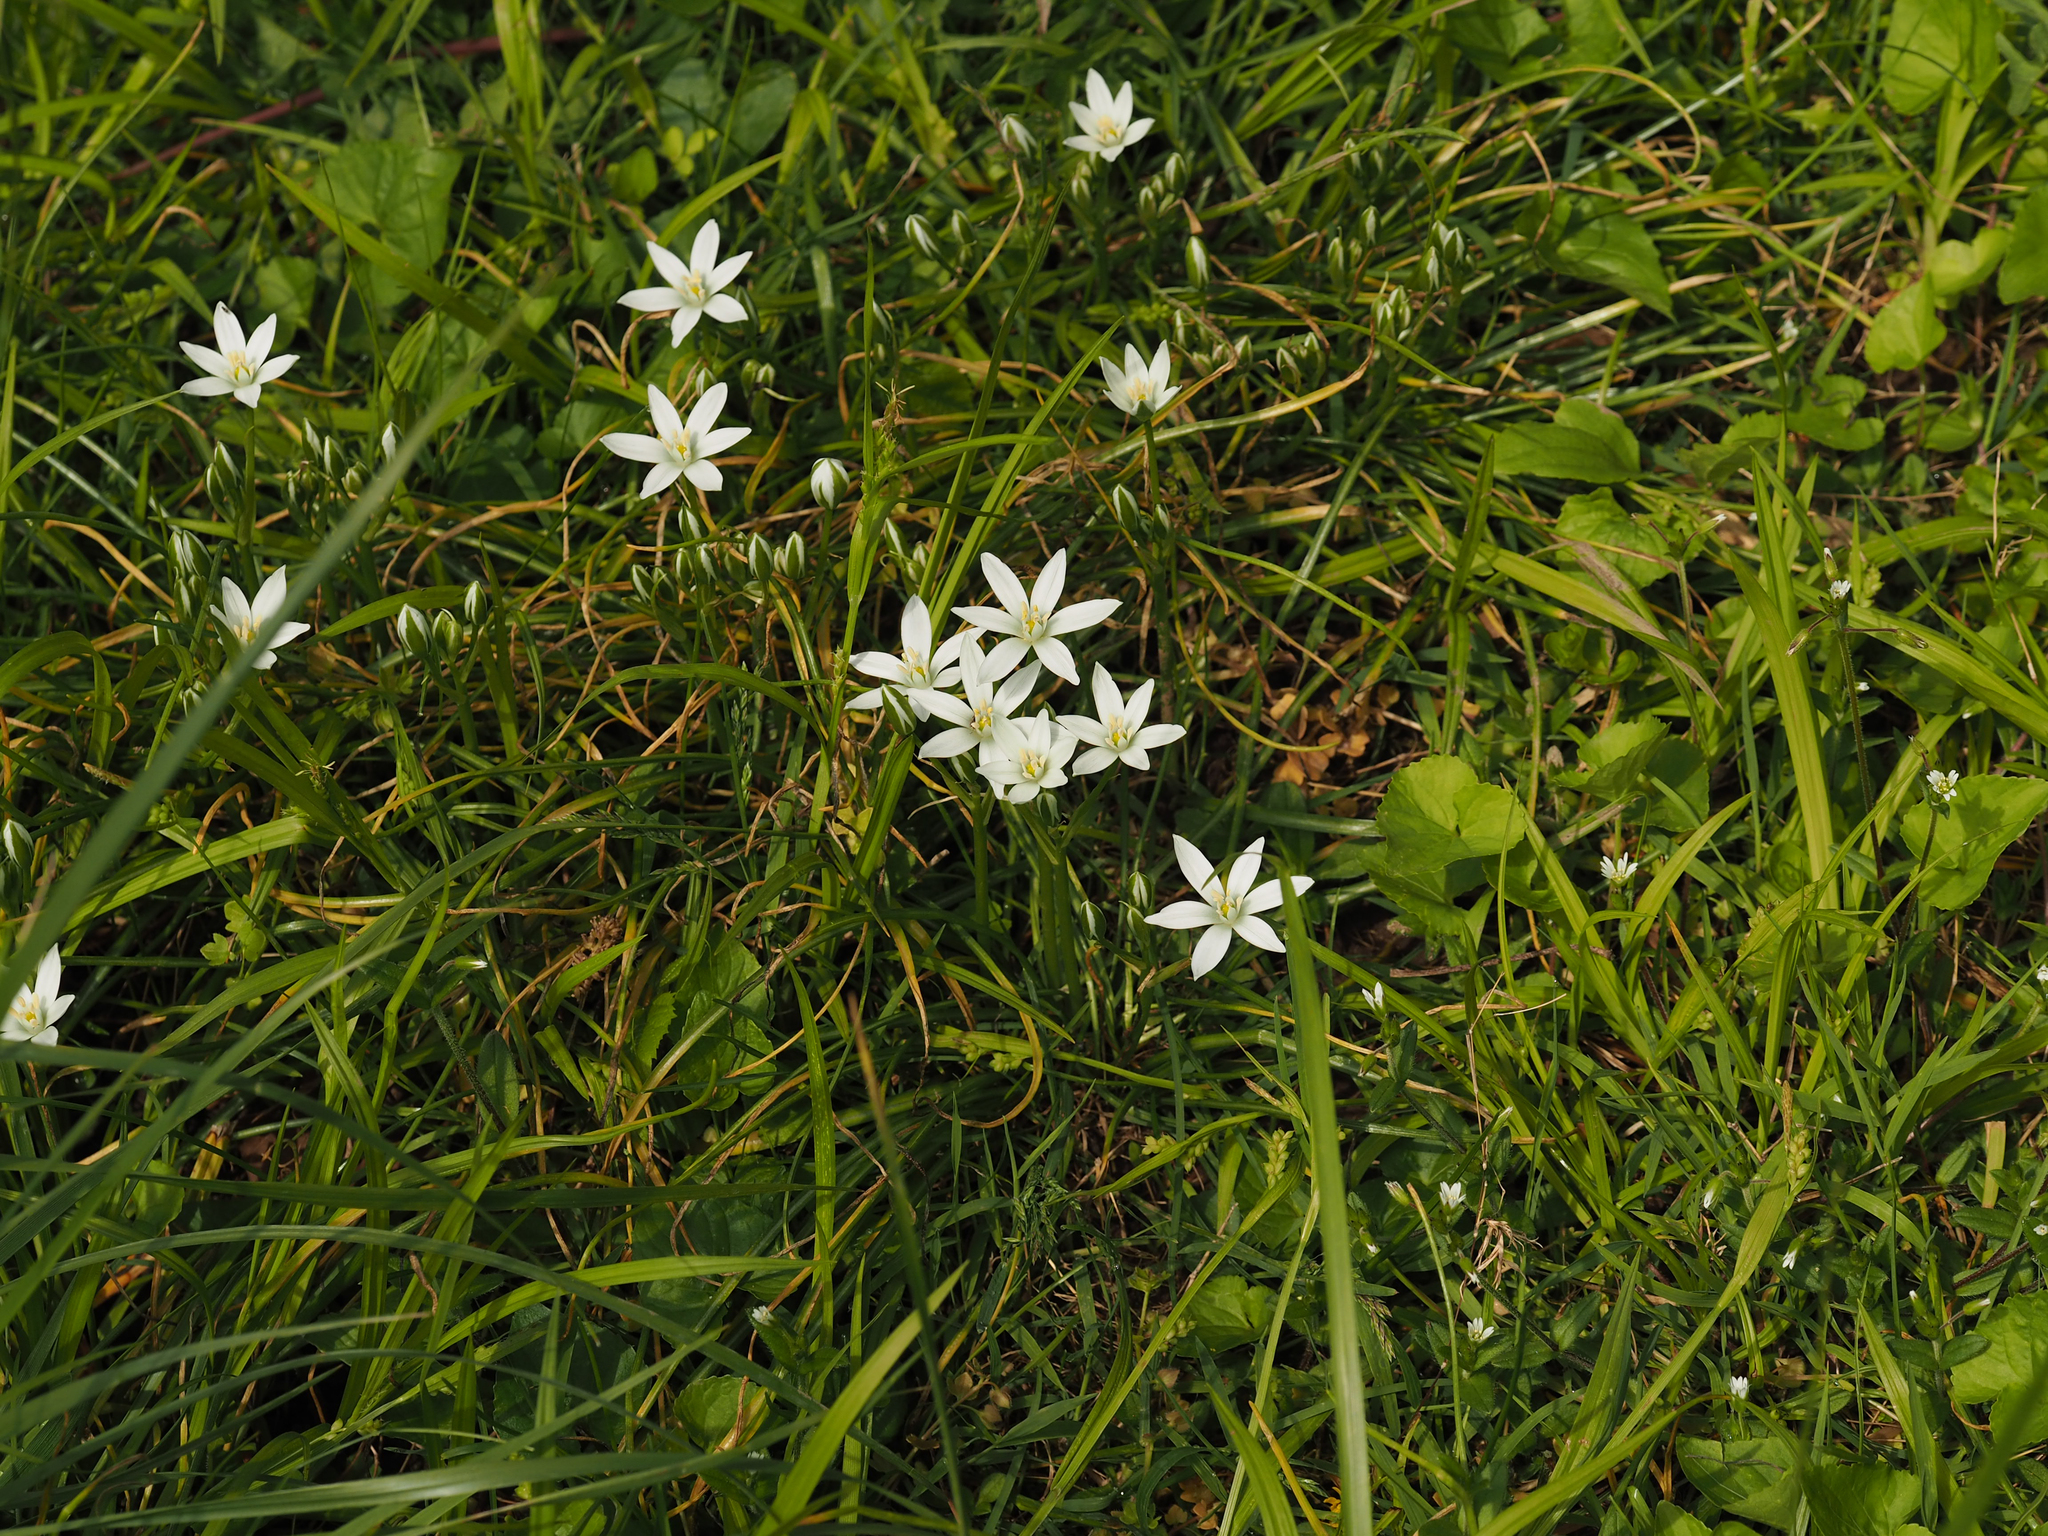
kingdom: Plantae
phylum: Tracheophyta
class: Liliopsida
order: Asparagales
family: Asparagaceae
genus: Ornithogalum
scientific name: Ornithogalum umbellatum
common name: Garden star-of-bethlehem
